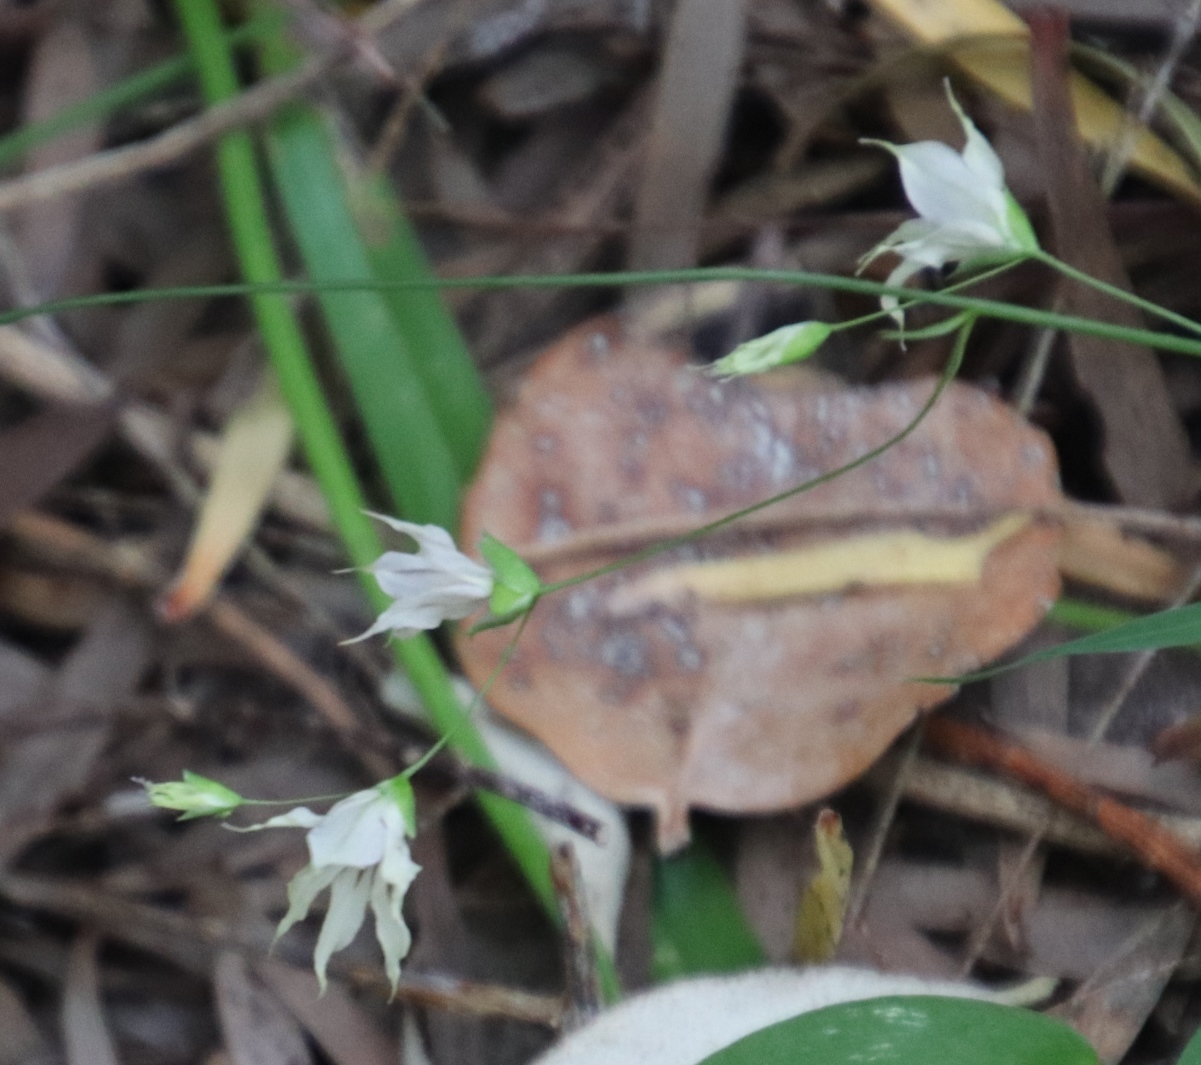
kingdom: Plantae
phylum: Tracheophyta
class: Liliopsida
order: Asparagales
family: Iridaceae
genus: Melasphaerula
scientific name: Melasphaerula graminea
